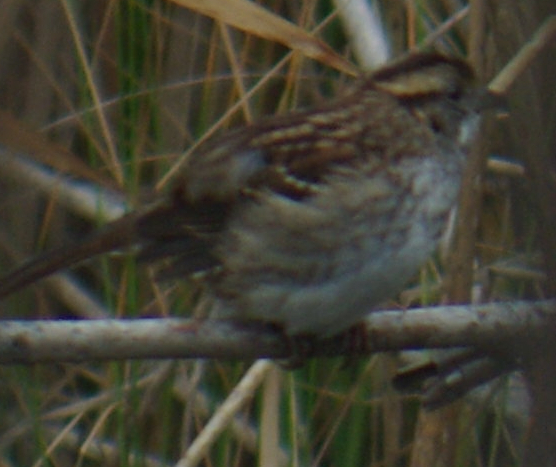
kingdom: Animalia
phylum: Chordata
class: Aves
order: Passeriformes
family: Passerellidae
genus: Zonotrichia
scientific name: Zonotrichia albicollis
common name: White-throated sparrow
